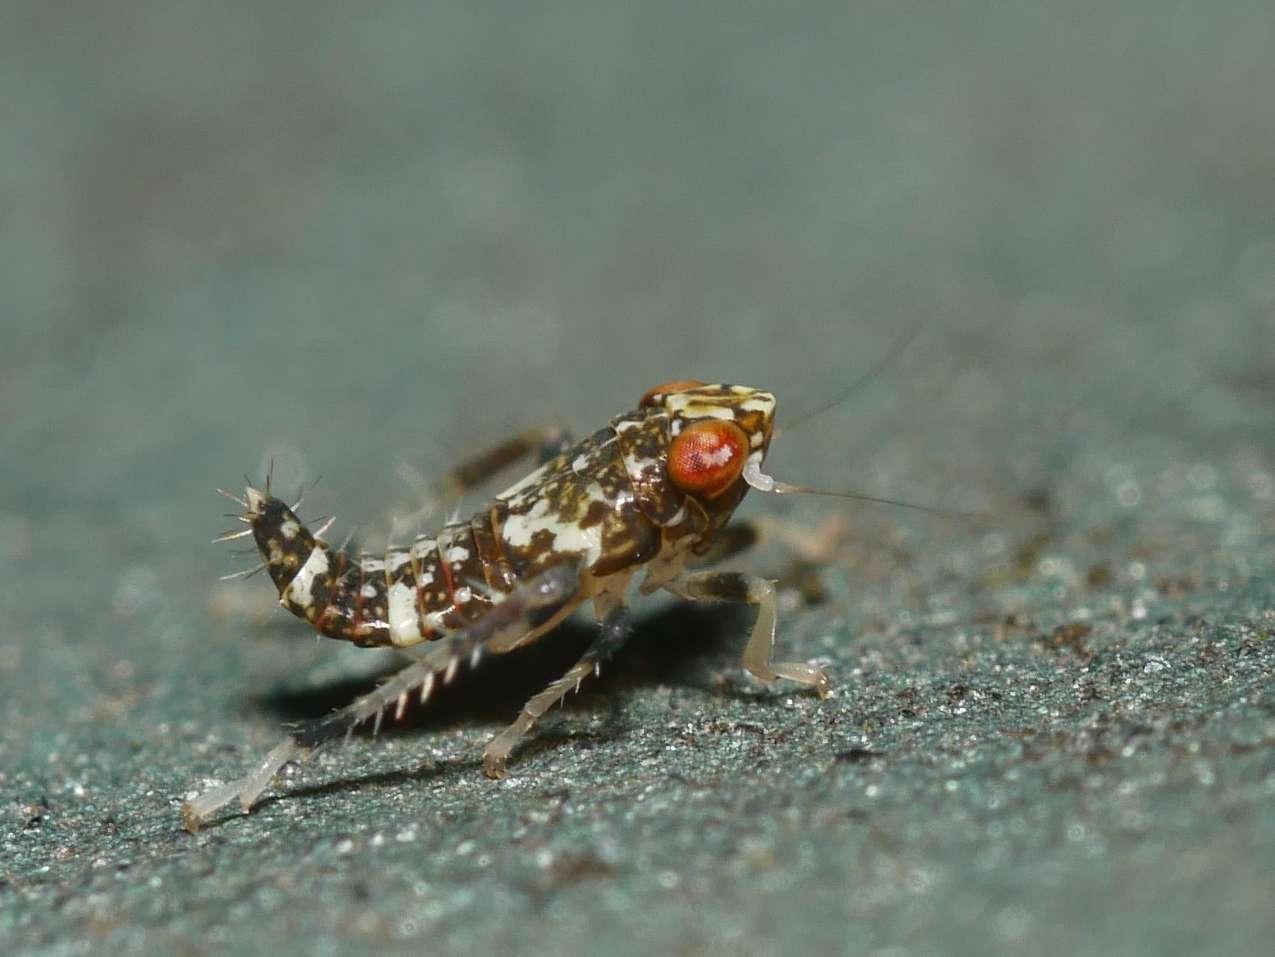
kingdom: Animalia
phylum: Arthropoda
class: Insecta
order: Hemiptera
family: Cicadellidae
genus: Orientus
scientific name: Orientus ishidae
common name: Japanese leafhopper
